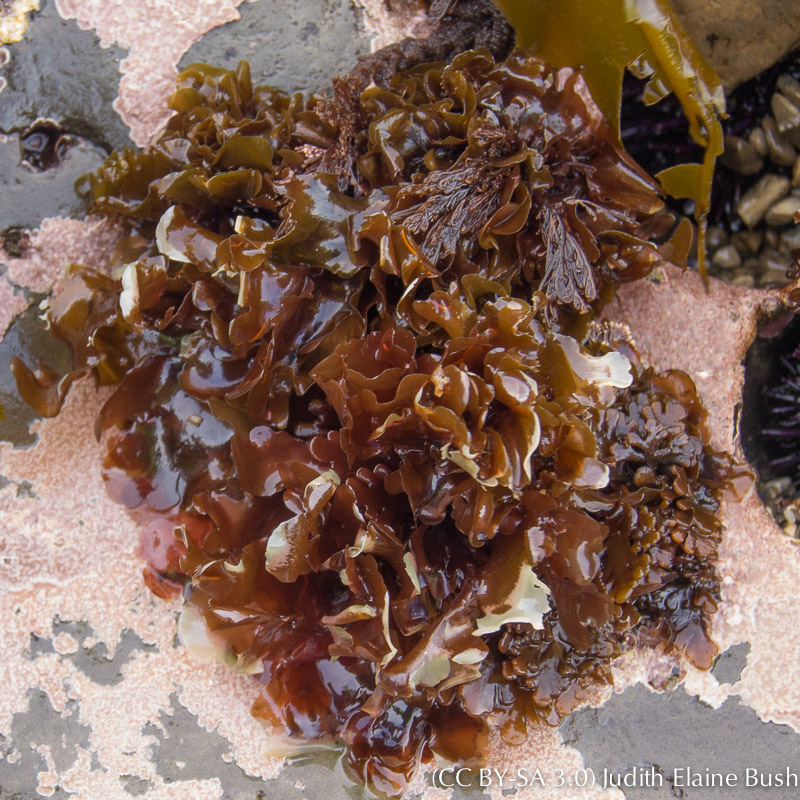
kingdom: Plantae
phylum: Rhodophyta
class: Florideophyceae
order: Ceramiales
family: Ceramiaceae
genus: Microcladia
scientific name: Microcladia borealis
